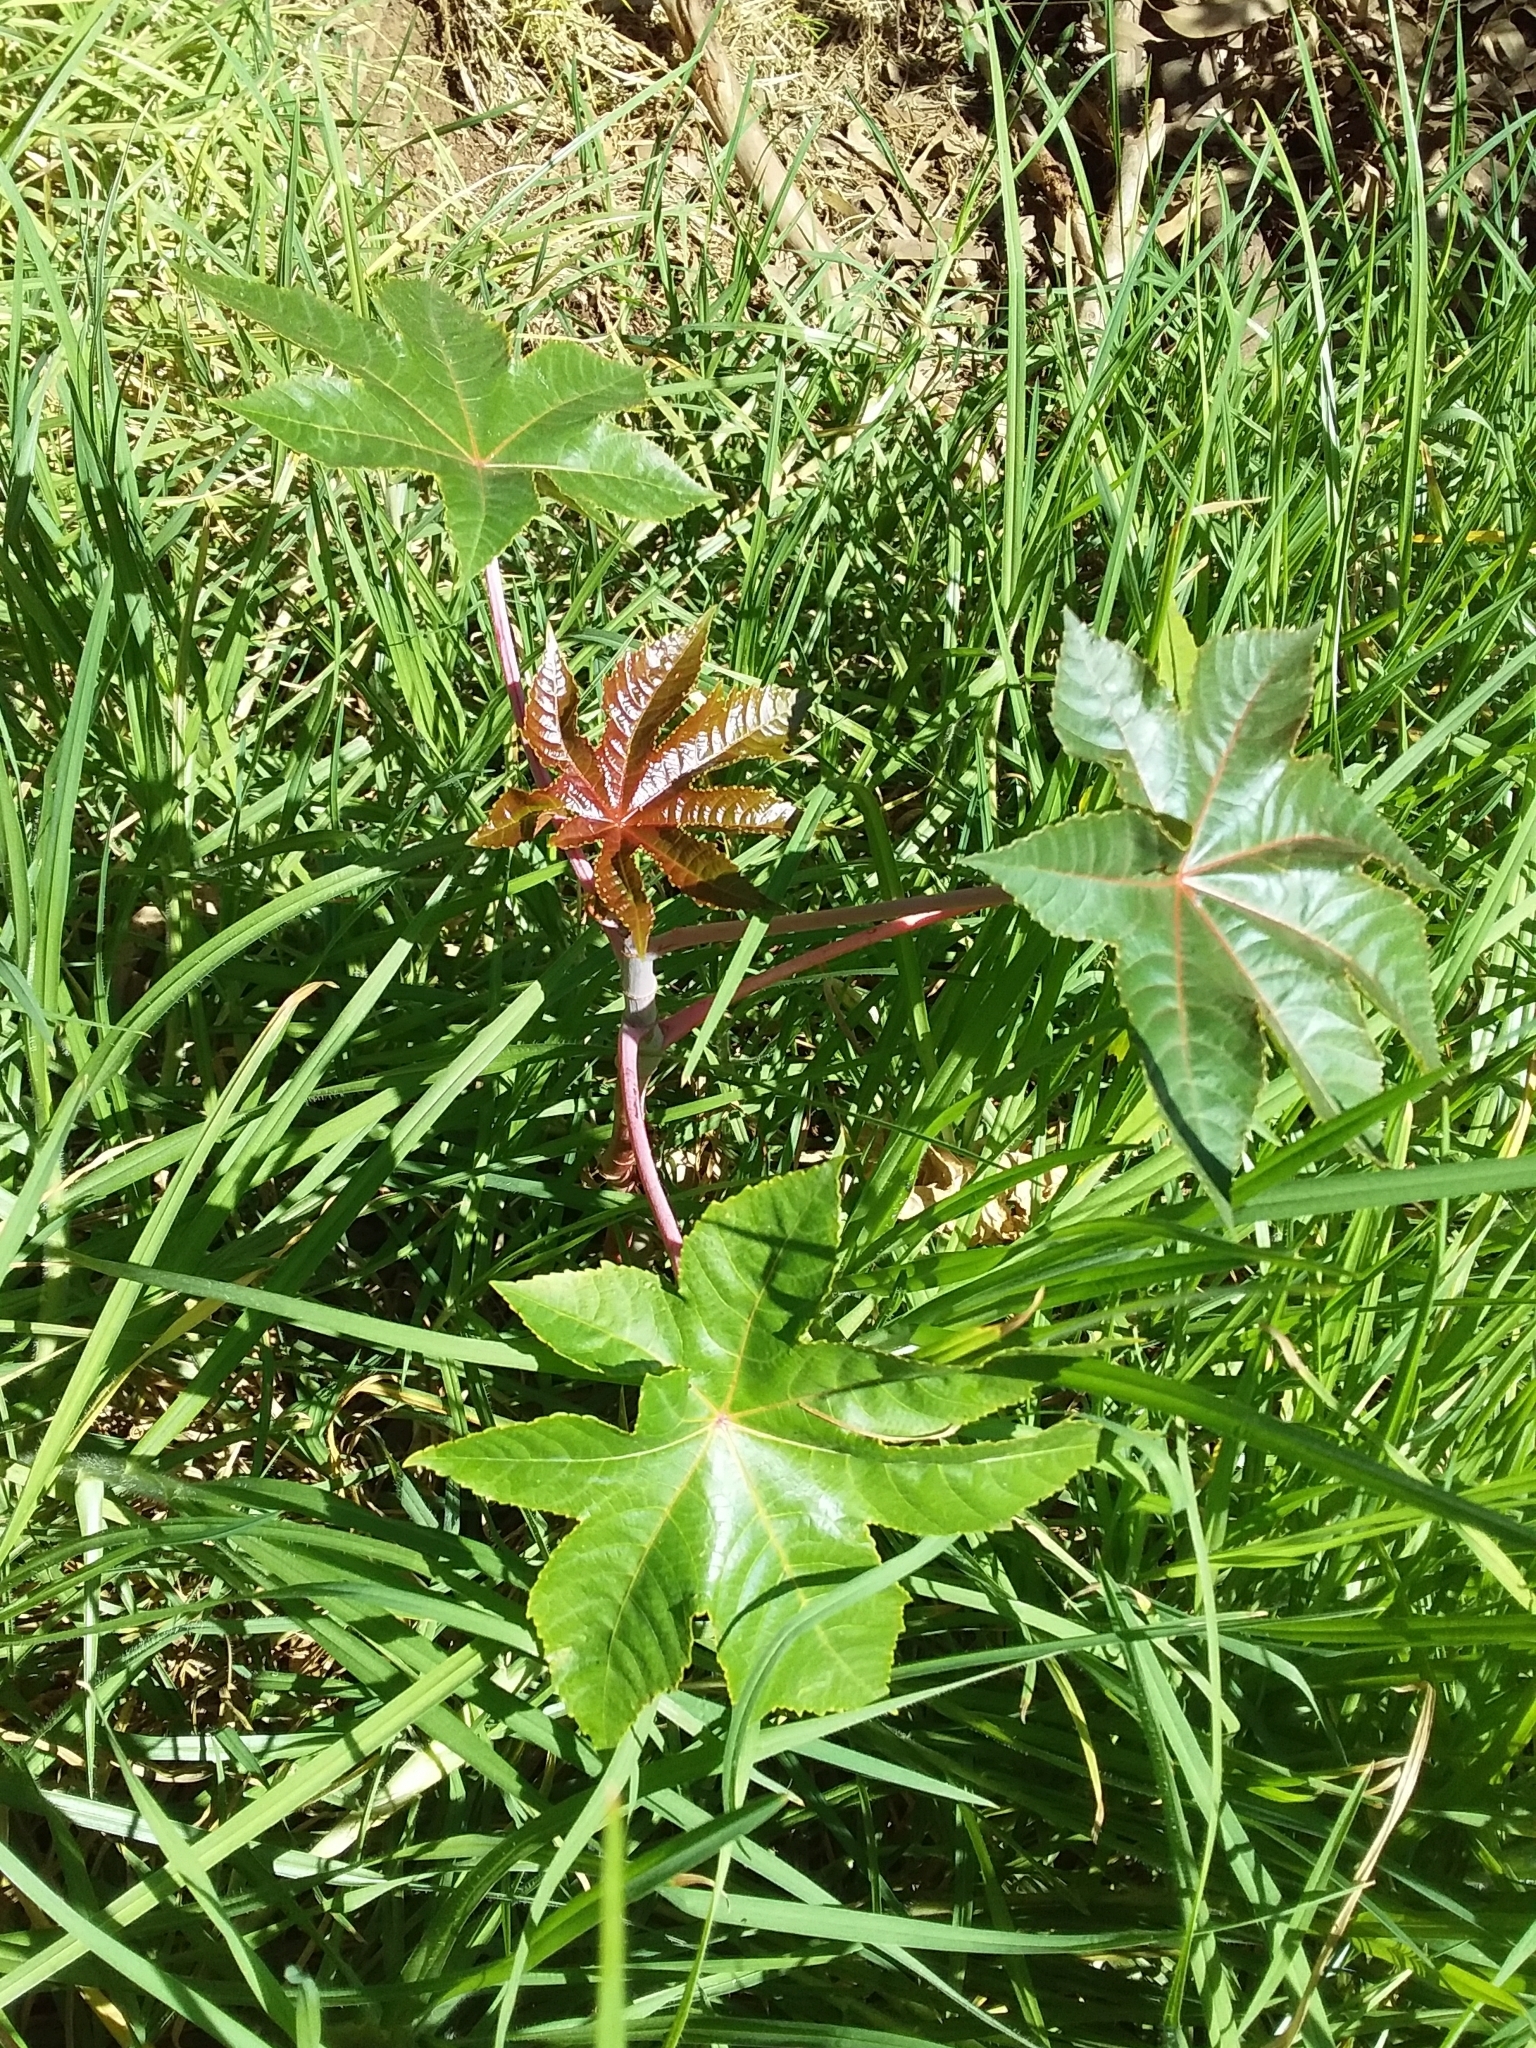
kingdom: Plantae
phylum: Tracheophyta
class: Magnoliopsida
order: Malpighiales
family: Euphorbiaceae
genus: Ricinus
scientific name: Ricinus communis
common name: Castor-oil-plant
